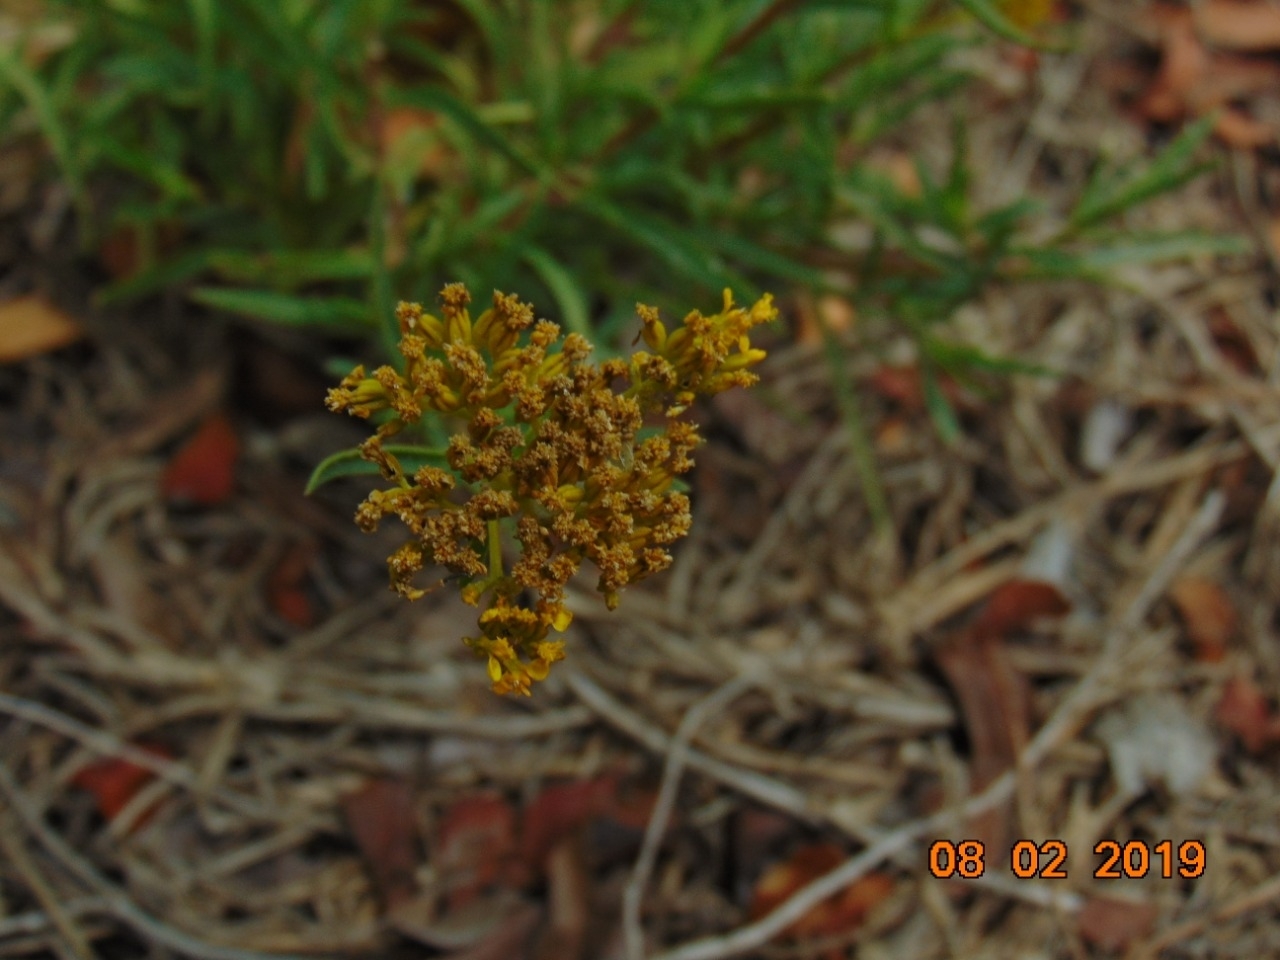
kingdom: Plantae
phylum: Tracheophyta
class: Magnoliopsida
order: Brassicales
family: Bataceae
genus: Batis
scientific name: Batis maritima
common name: Turtleweed
